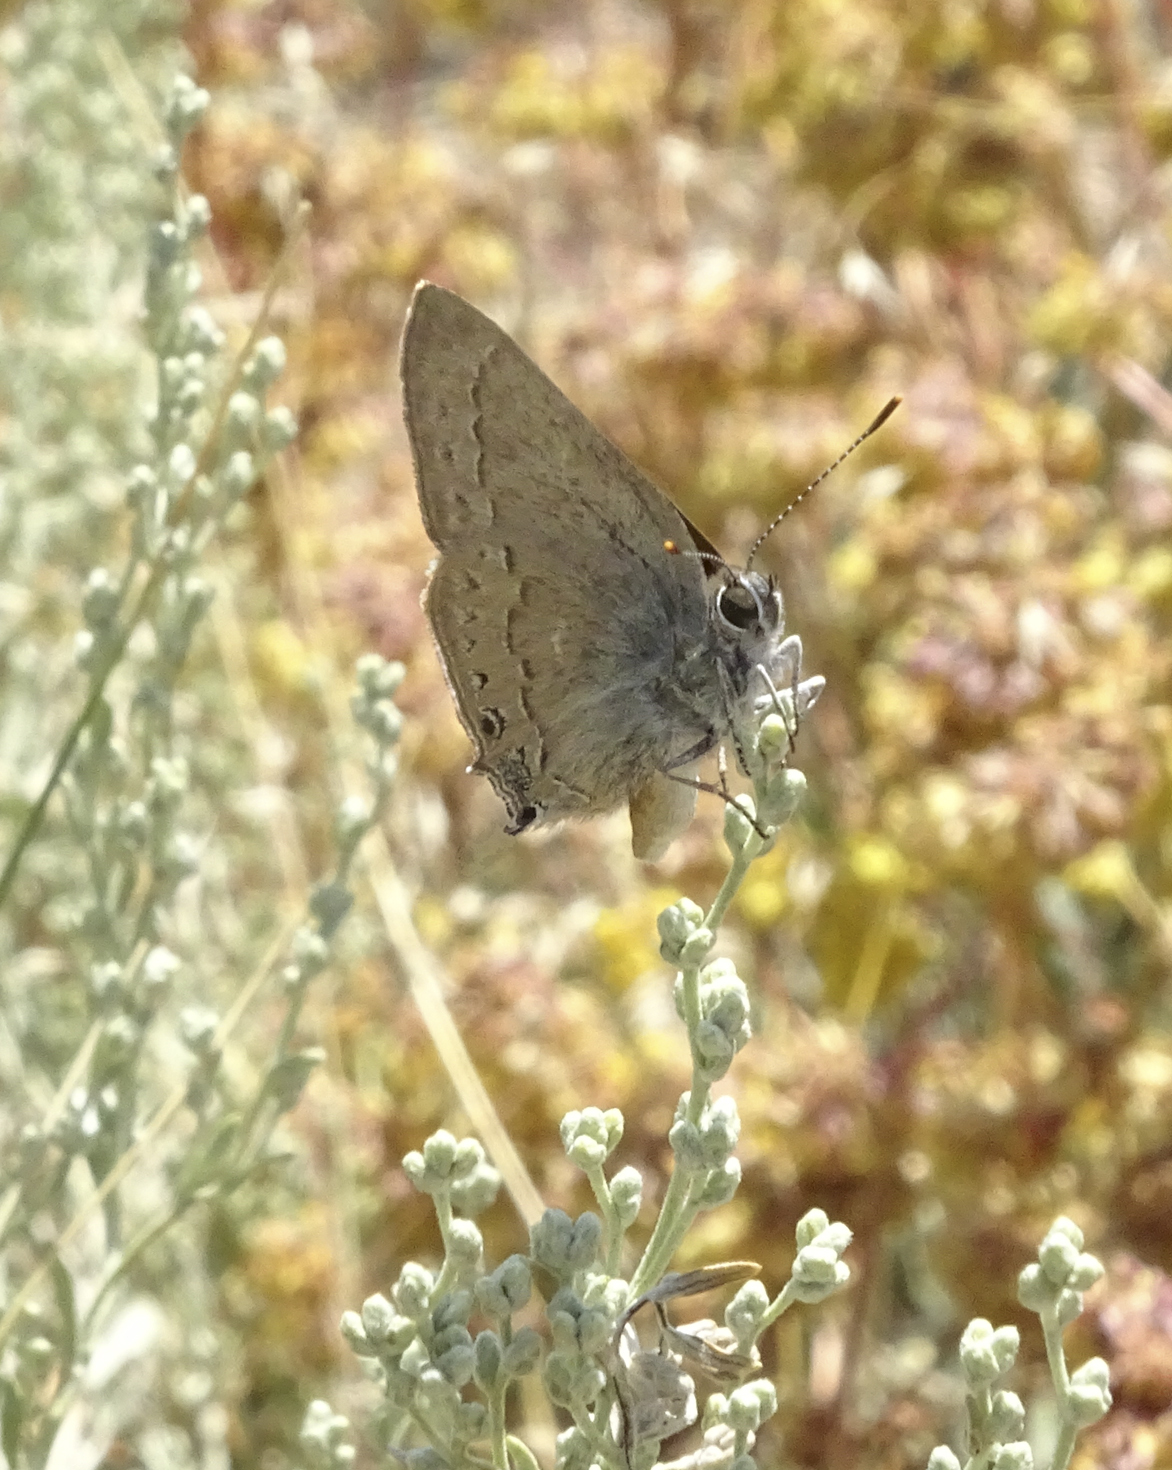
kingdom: Animalia
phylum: Arthropoda
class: Insecta
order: Lepidoptera
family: Lycaenidae
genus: Strymon
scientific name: Strymon saepium
